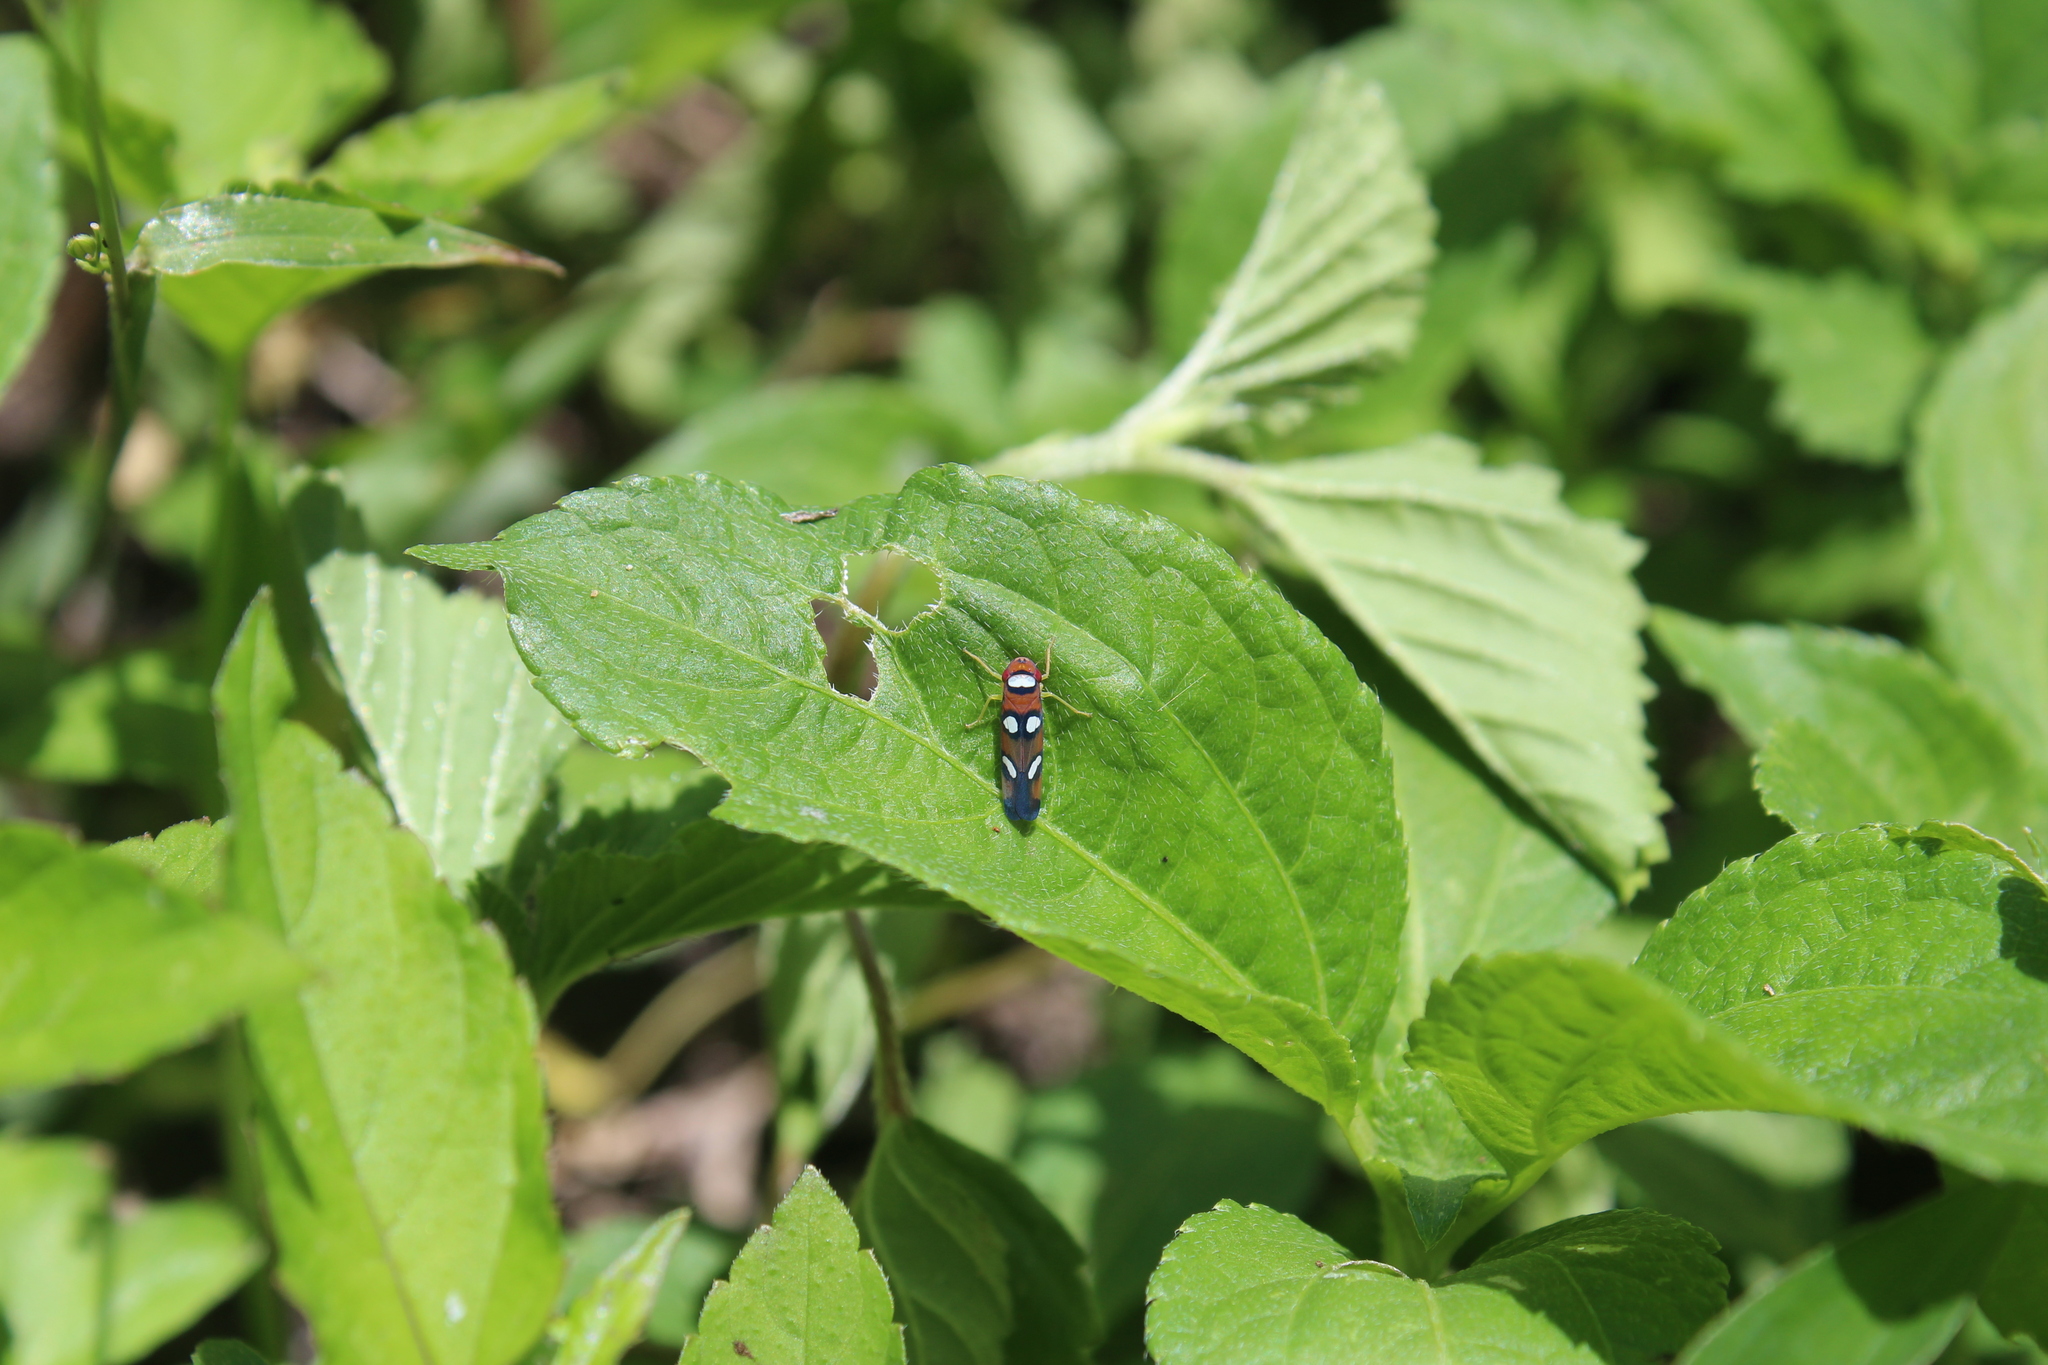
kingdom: Animalia
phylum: Arthropoda
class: Insecta
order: Hemiptera
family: Cicadellidae
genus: Erythrogonia
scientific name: Erythrogonia areolata
